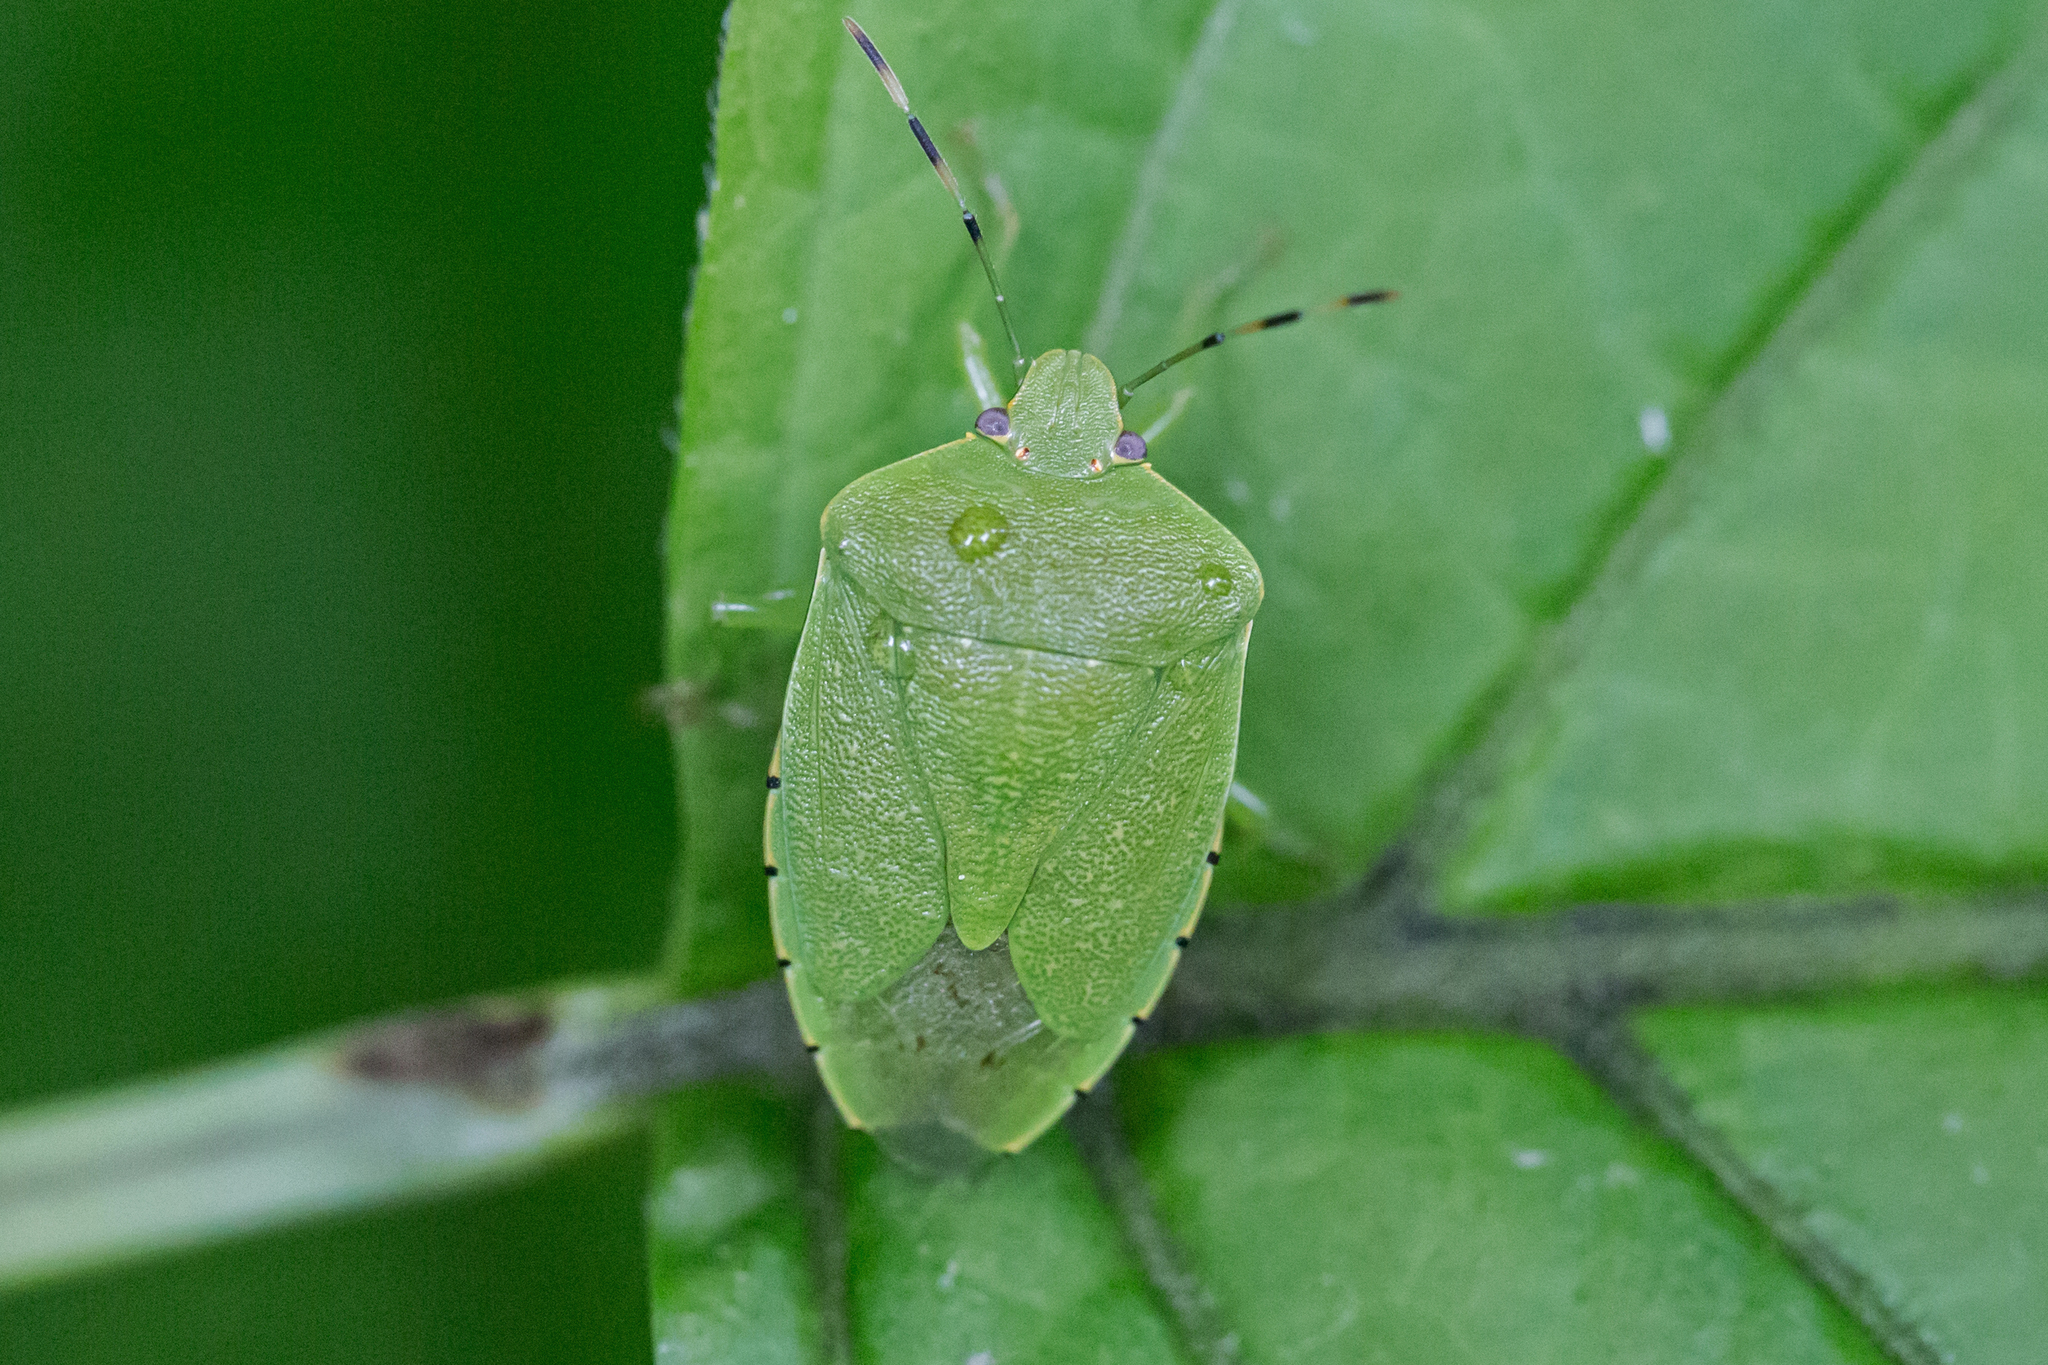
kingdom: Animalia
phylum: Arthropoda
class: Insecta
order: Hemiptera
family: Pentatomidae
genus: Chinavia
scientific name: Chinavia hilaris
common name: Green stink bug
